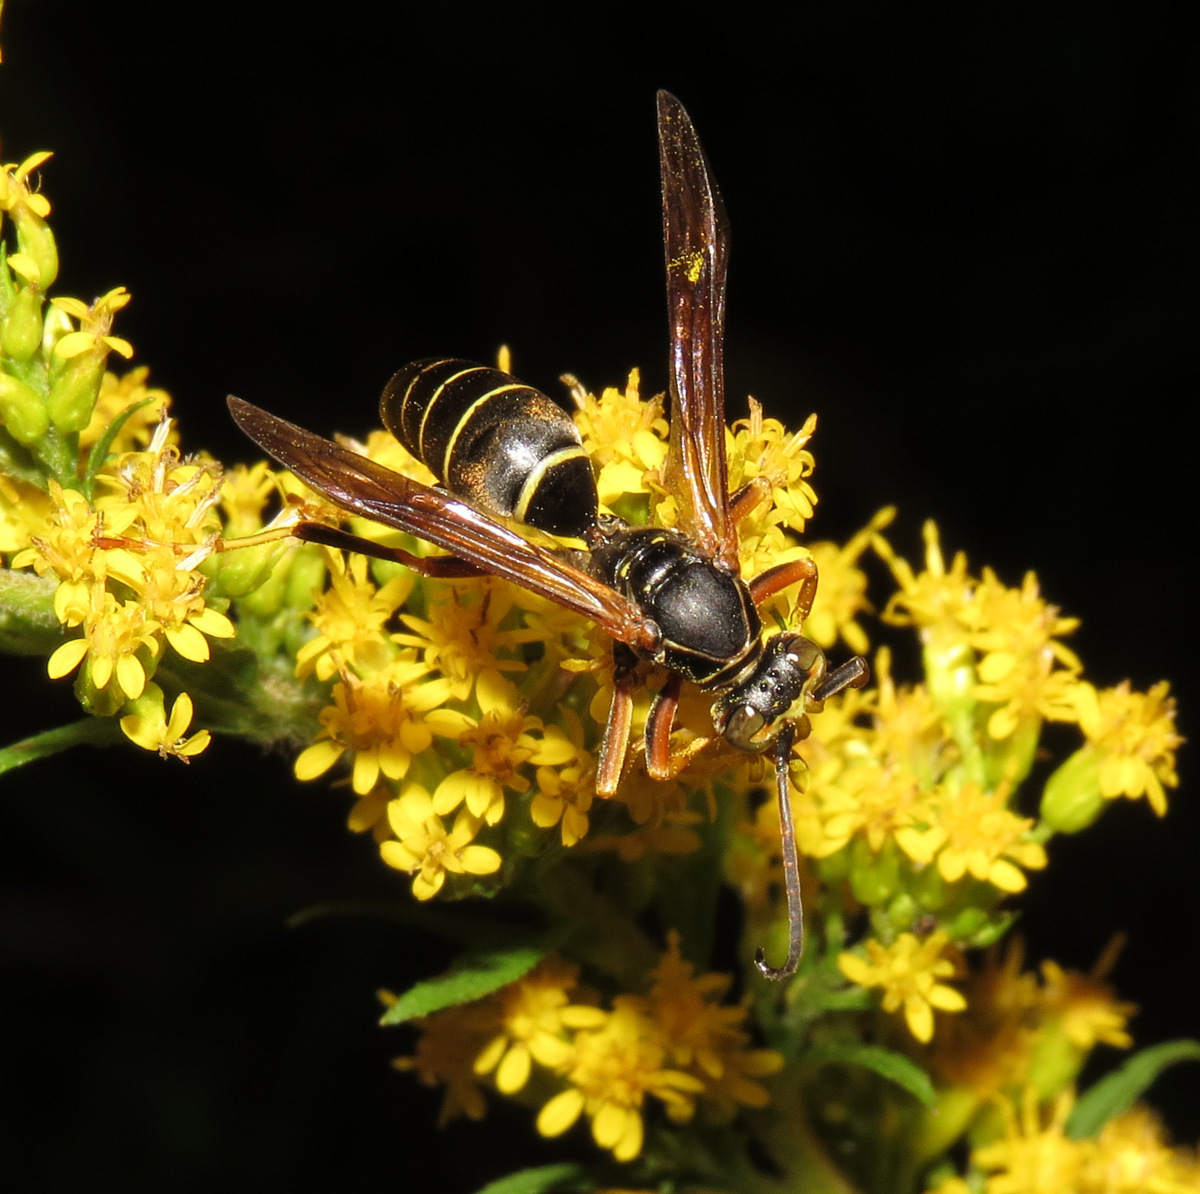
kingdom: Animalia
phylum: Arthropoda
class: Insecta
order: Hymenoptera
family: Eumenidae
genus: Polistes
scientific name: Polistes fuscatus
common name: Dark paper wasp
